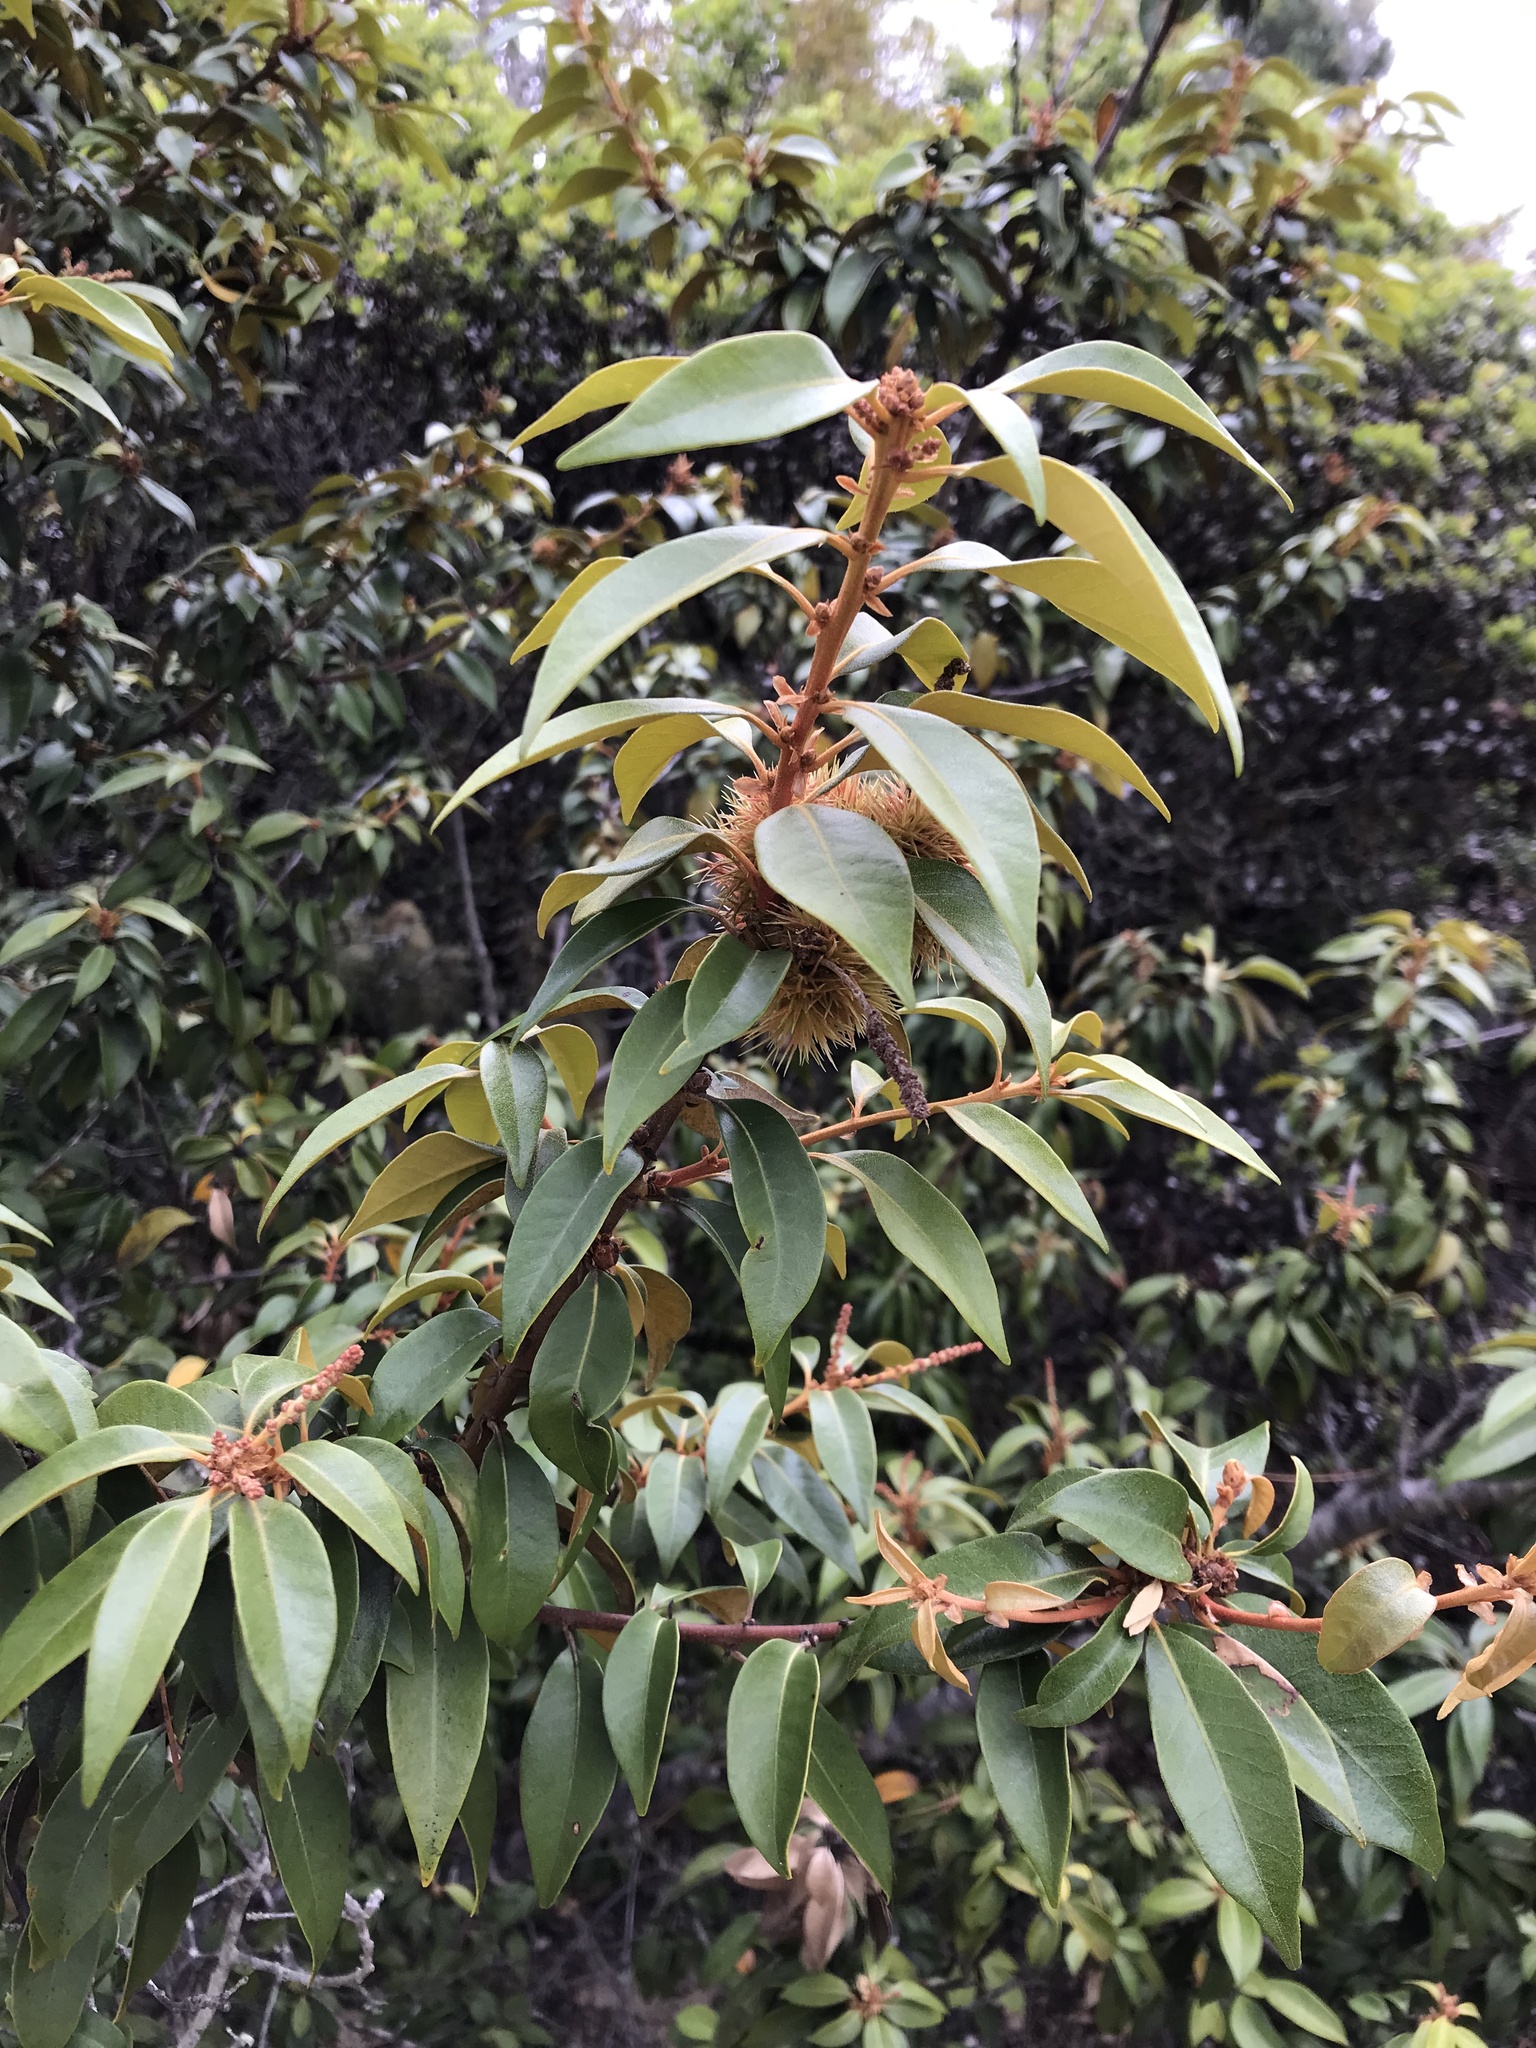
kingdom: Plantae
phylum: Tracheophyta
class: Magnoliopsida
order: Fagales
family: Fagaceae
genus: Chrysolepis
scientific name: Chrysolepis chrysophylla
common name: Giant chinquapin
